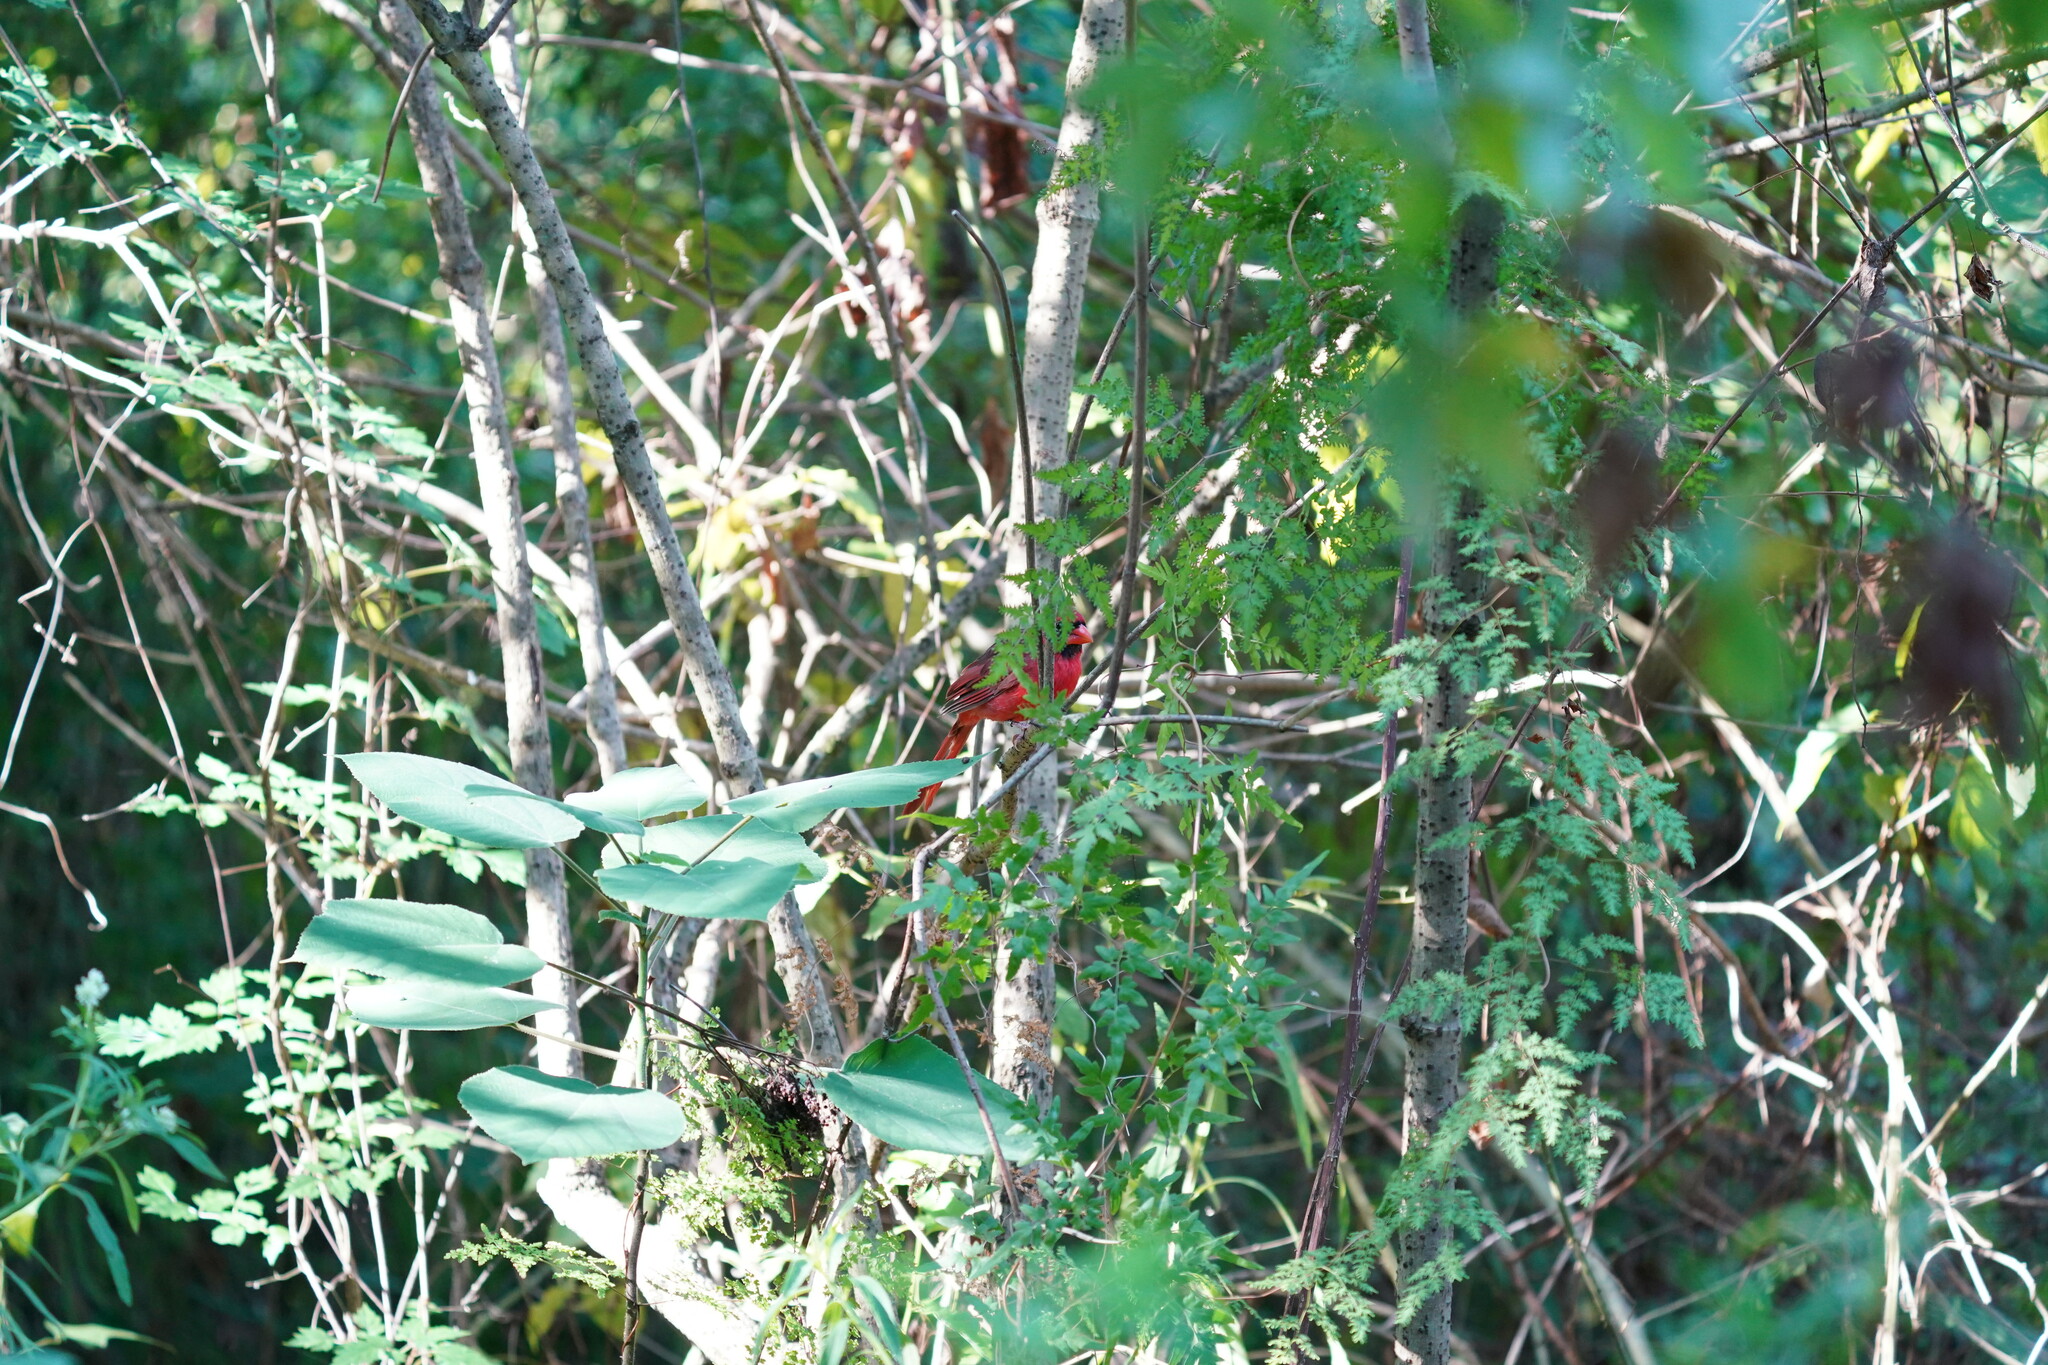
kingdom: Animalia
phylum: Chordata
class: Aves
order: Passeriformes
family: Cardinalidae
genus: Cardinalis
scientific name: Cardinalis cardinalis
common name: Northern cardinal
